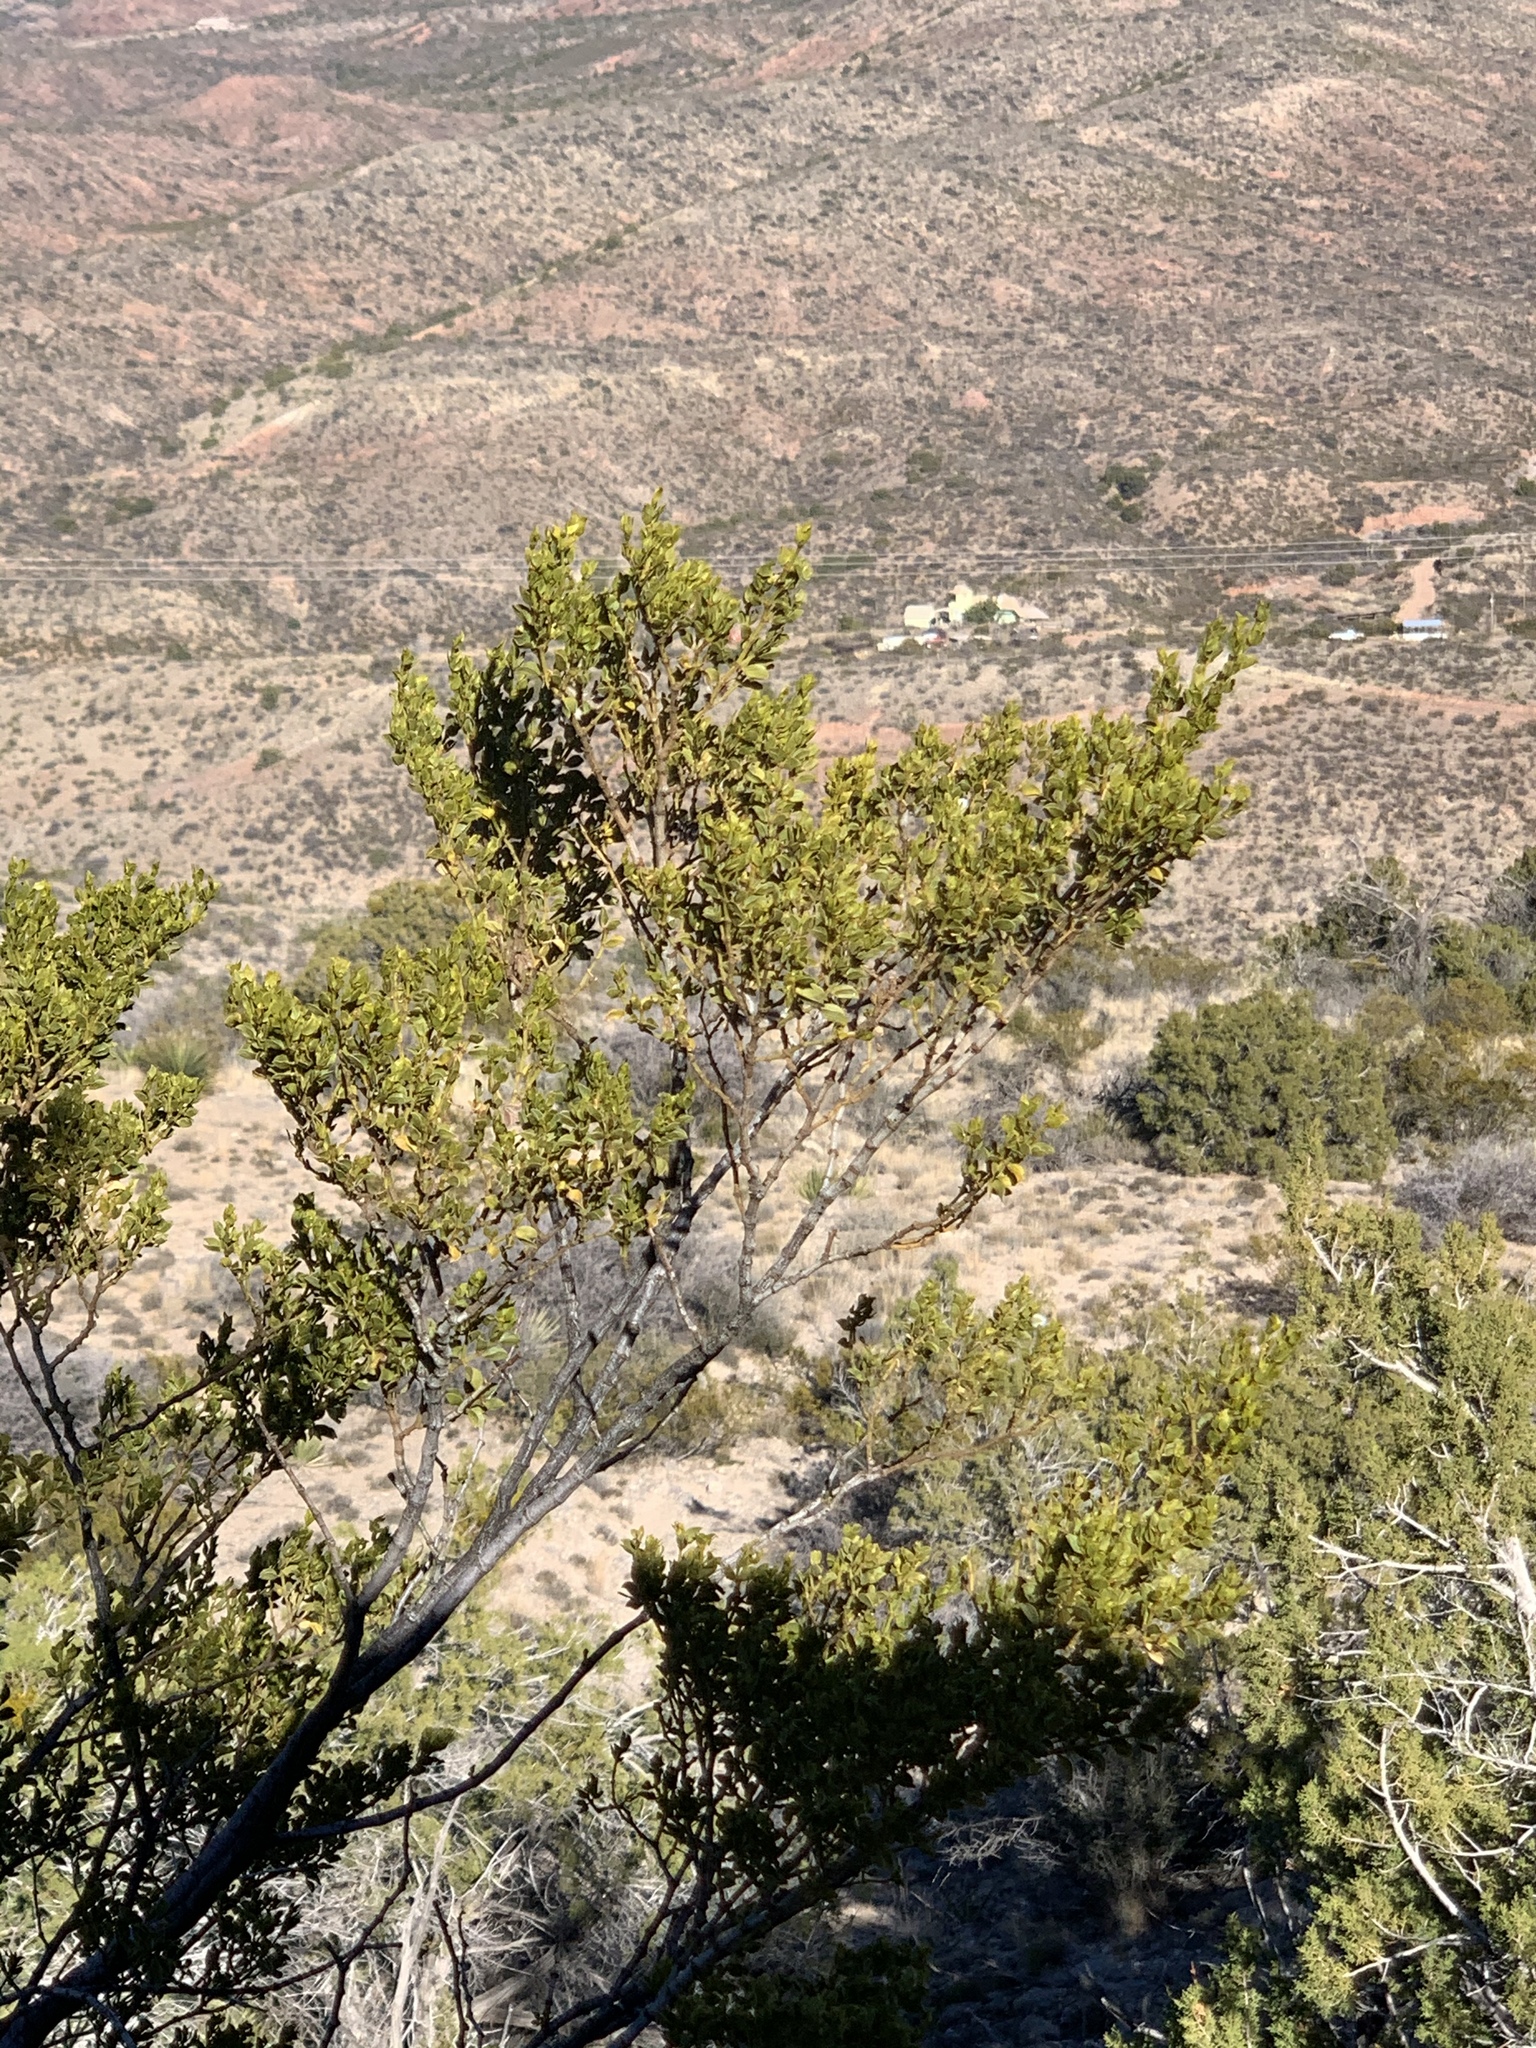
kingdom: Plantae
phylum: Tracheophyta
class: Magnoliopsida
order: Zygophyllales
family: Zygophyllaceae
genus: Larrea
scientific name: Larrea tridentata
